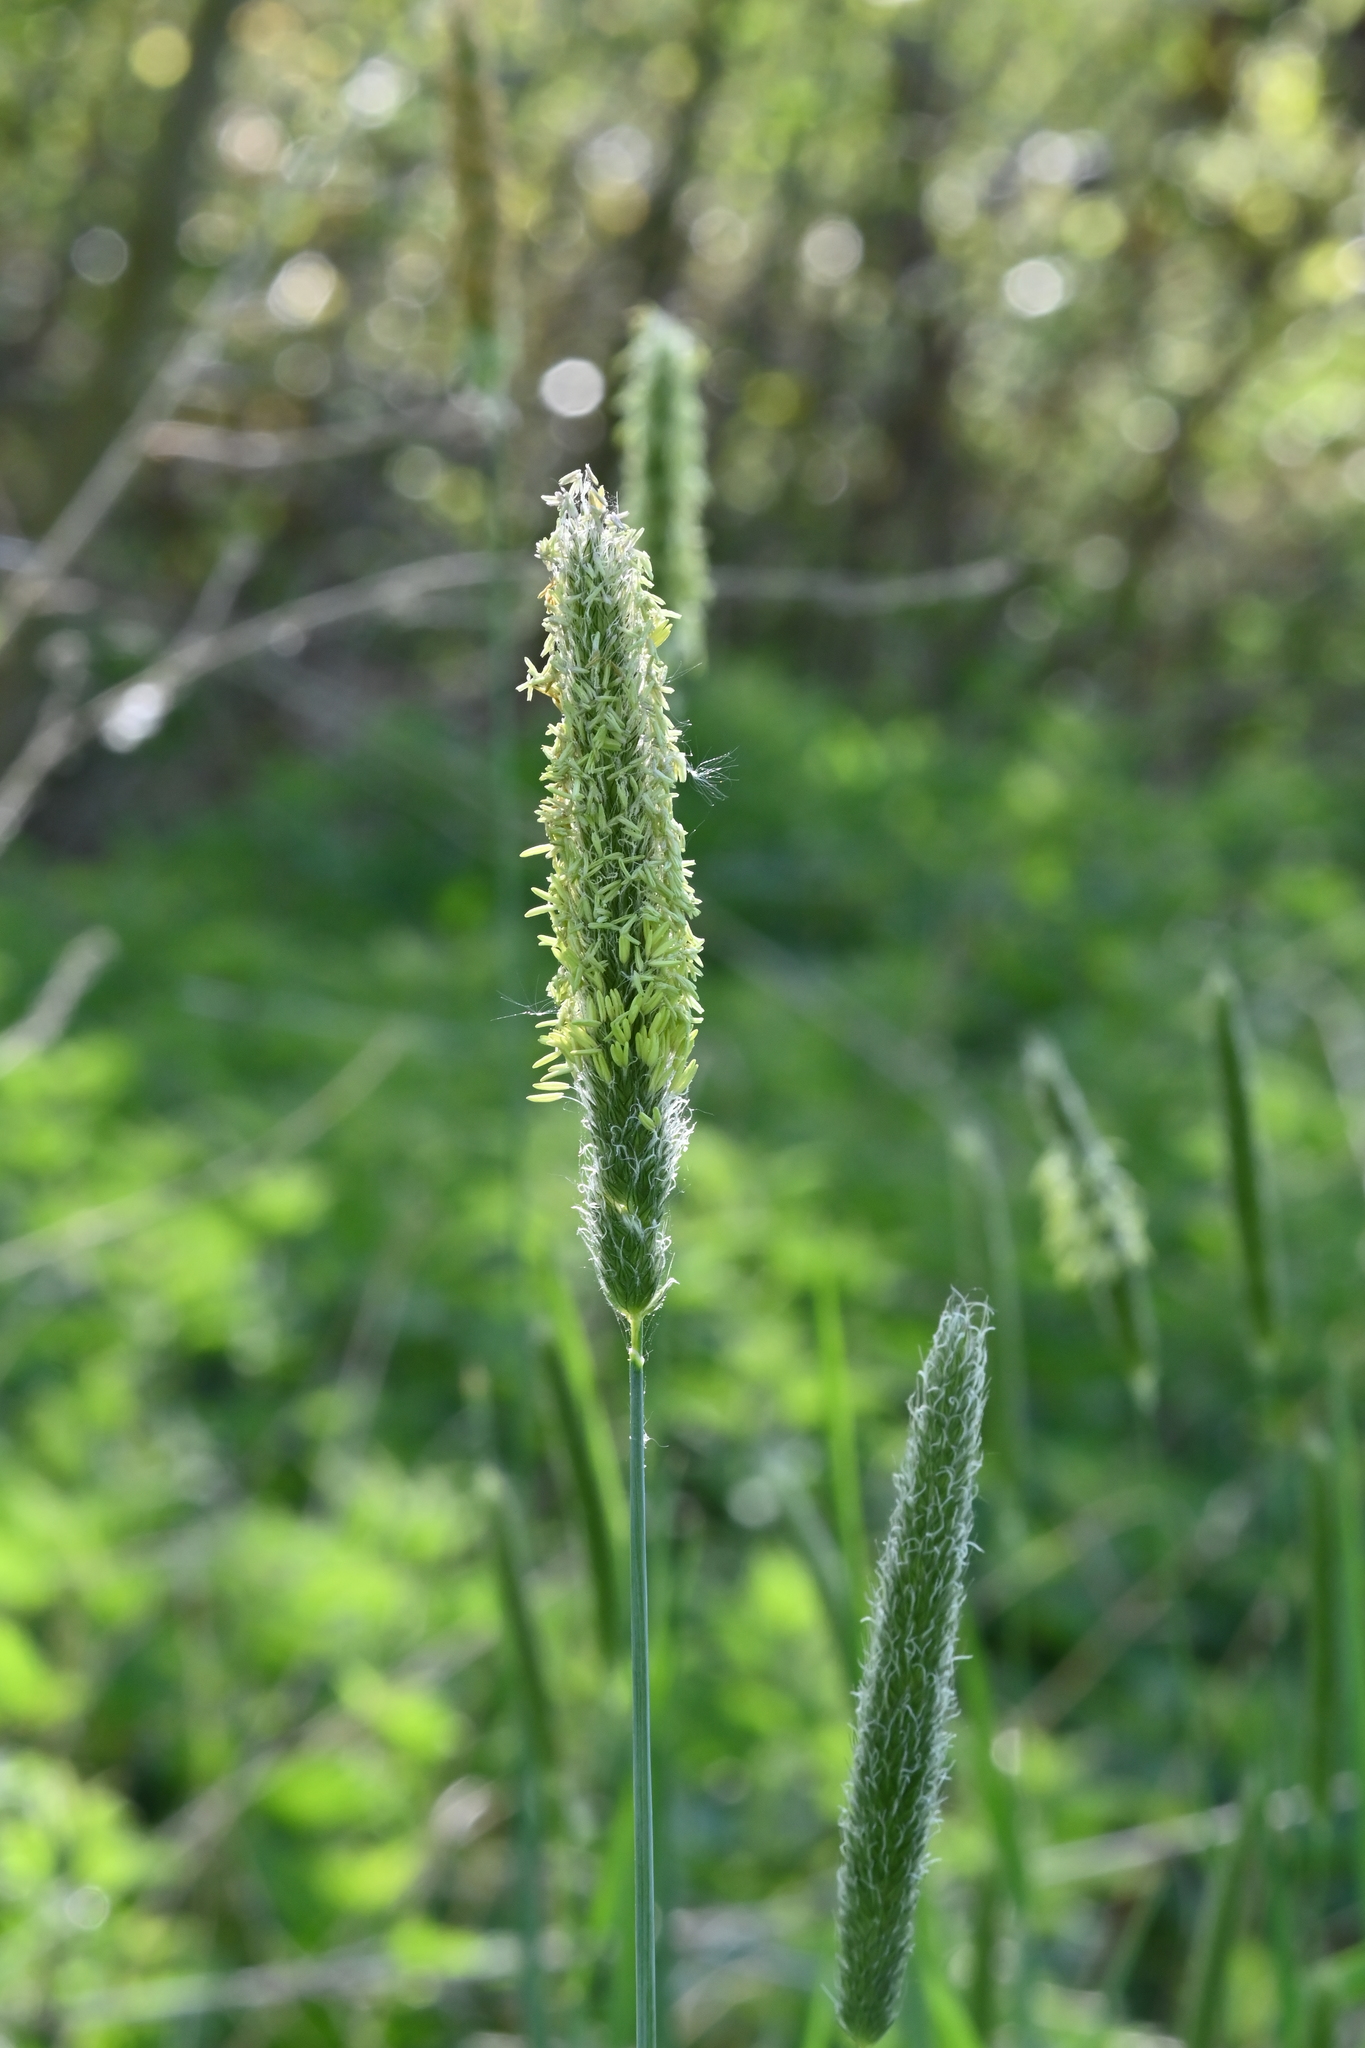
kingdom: Plantae
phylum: Tracheophyta
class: Liliopsida
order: Poales
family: Poaceae
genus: Alopecurus
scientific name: Alopecurus pratensis
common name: Meadow foxtail
